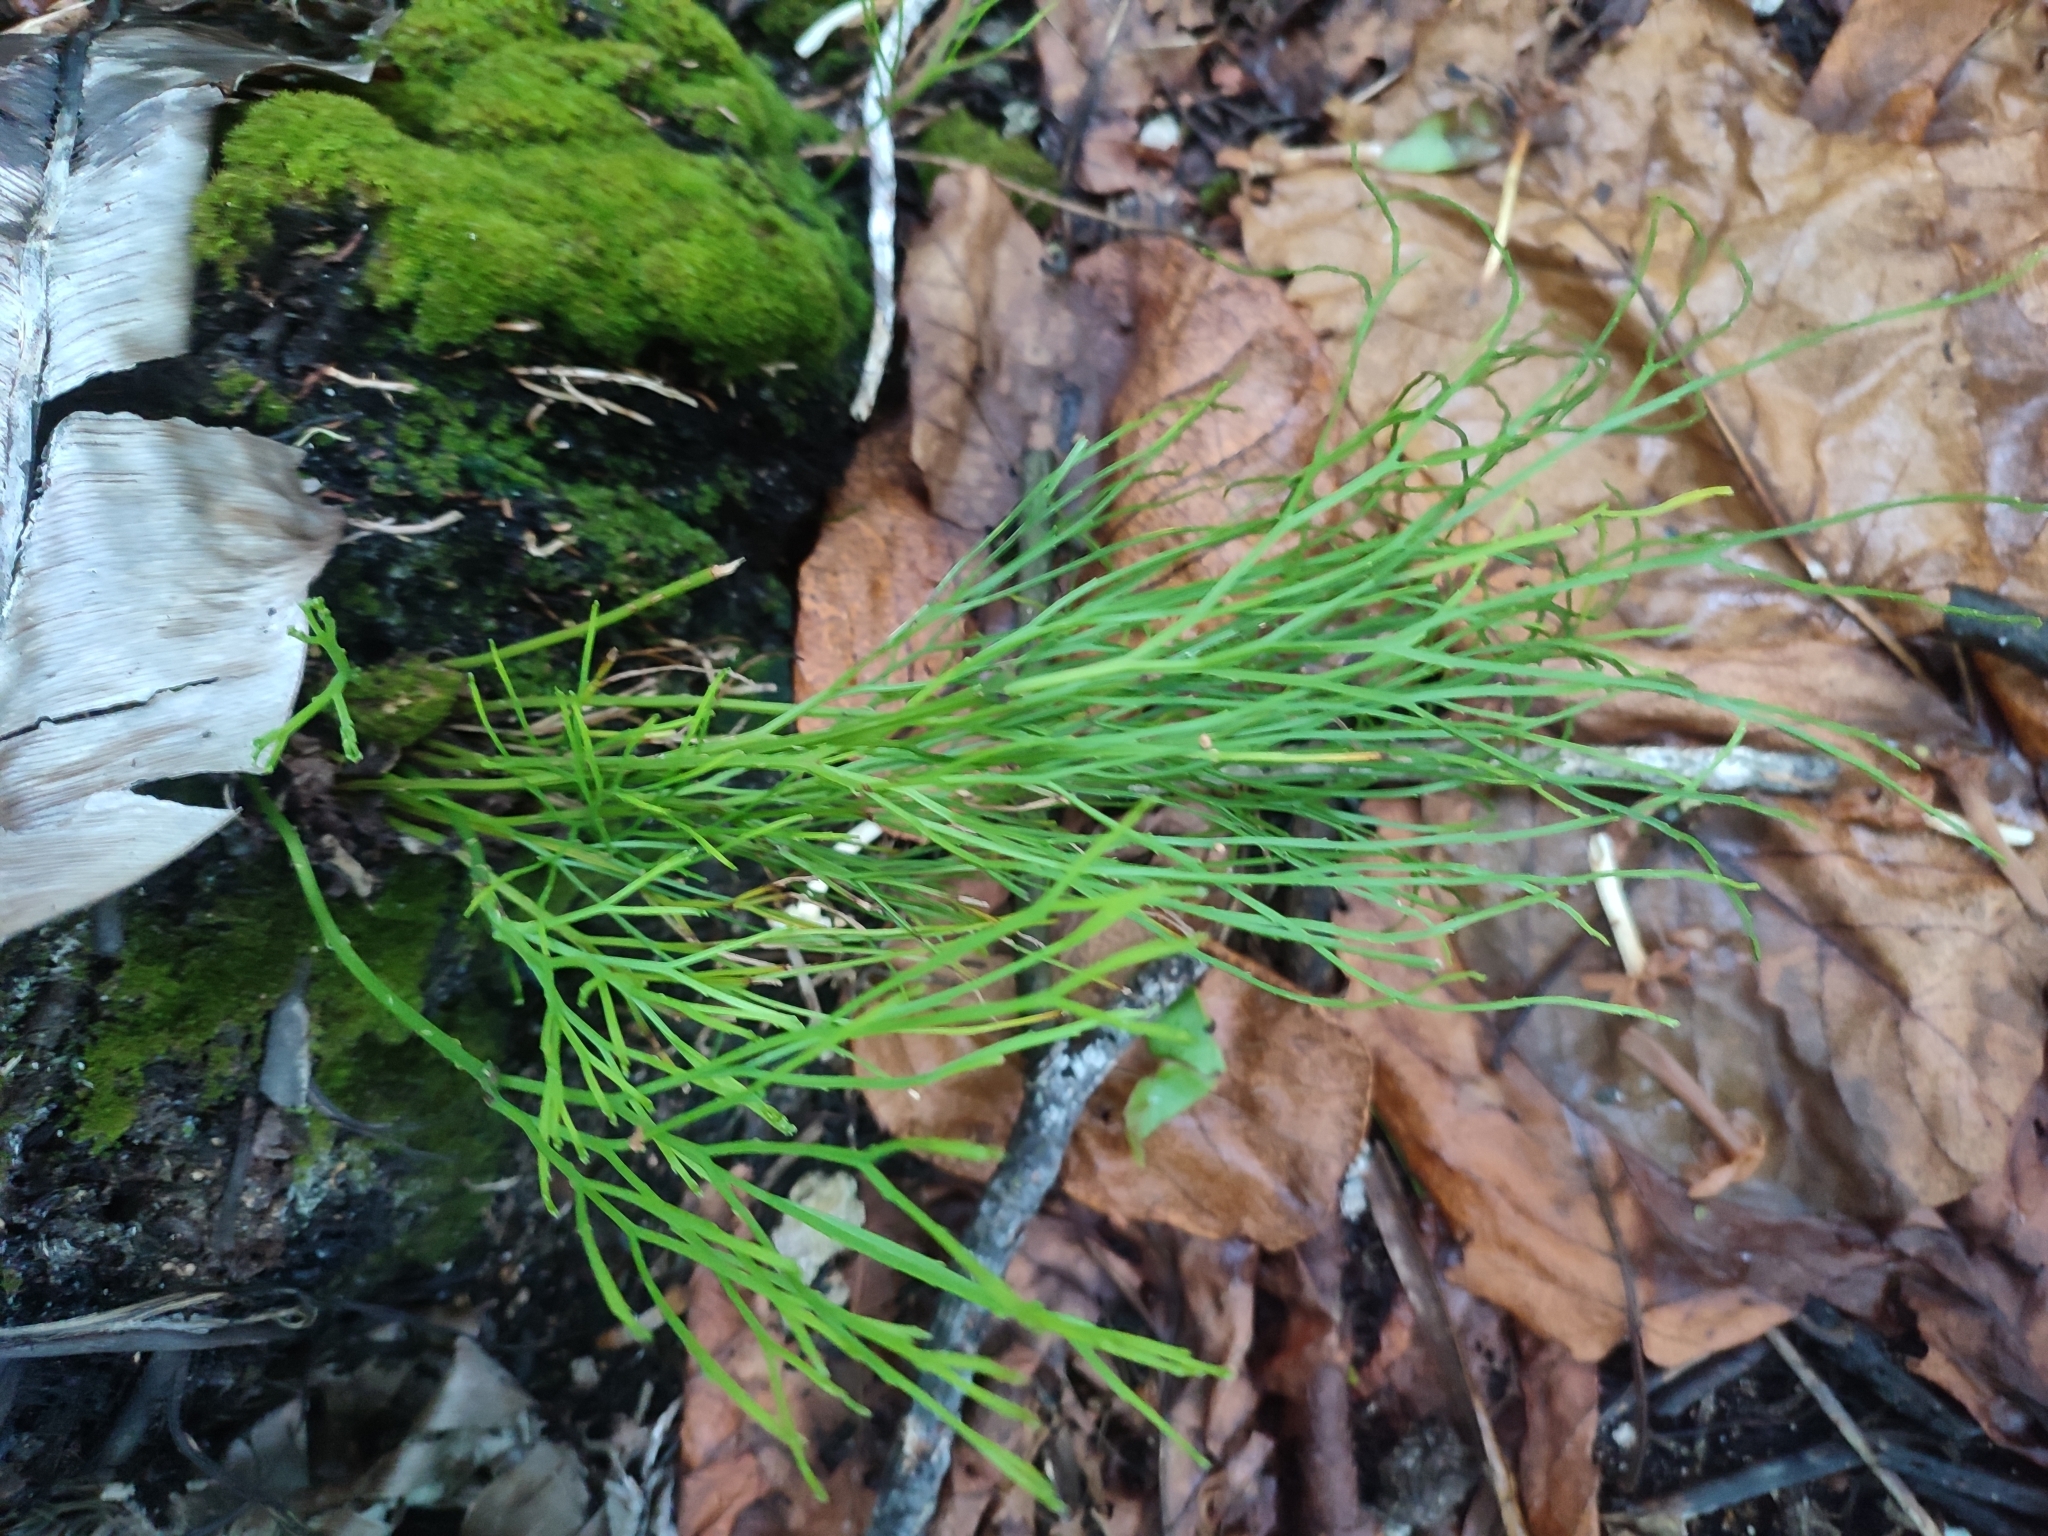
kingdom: Plantae
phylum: Tracheophyta
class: Polypodiopsida
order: Psilotales
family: Psilotaceae
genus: Psilotum
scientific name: Psilotum nudum
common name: Skeleton fork fern
